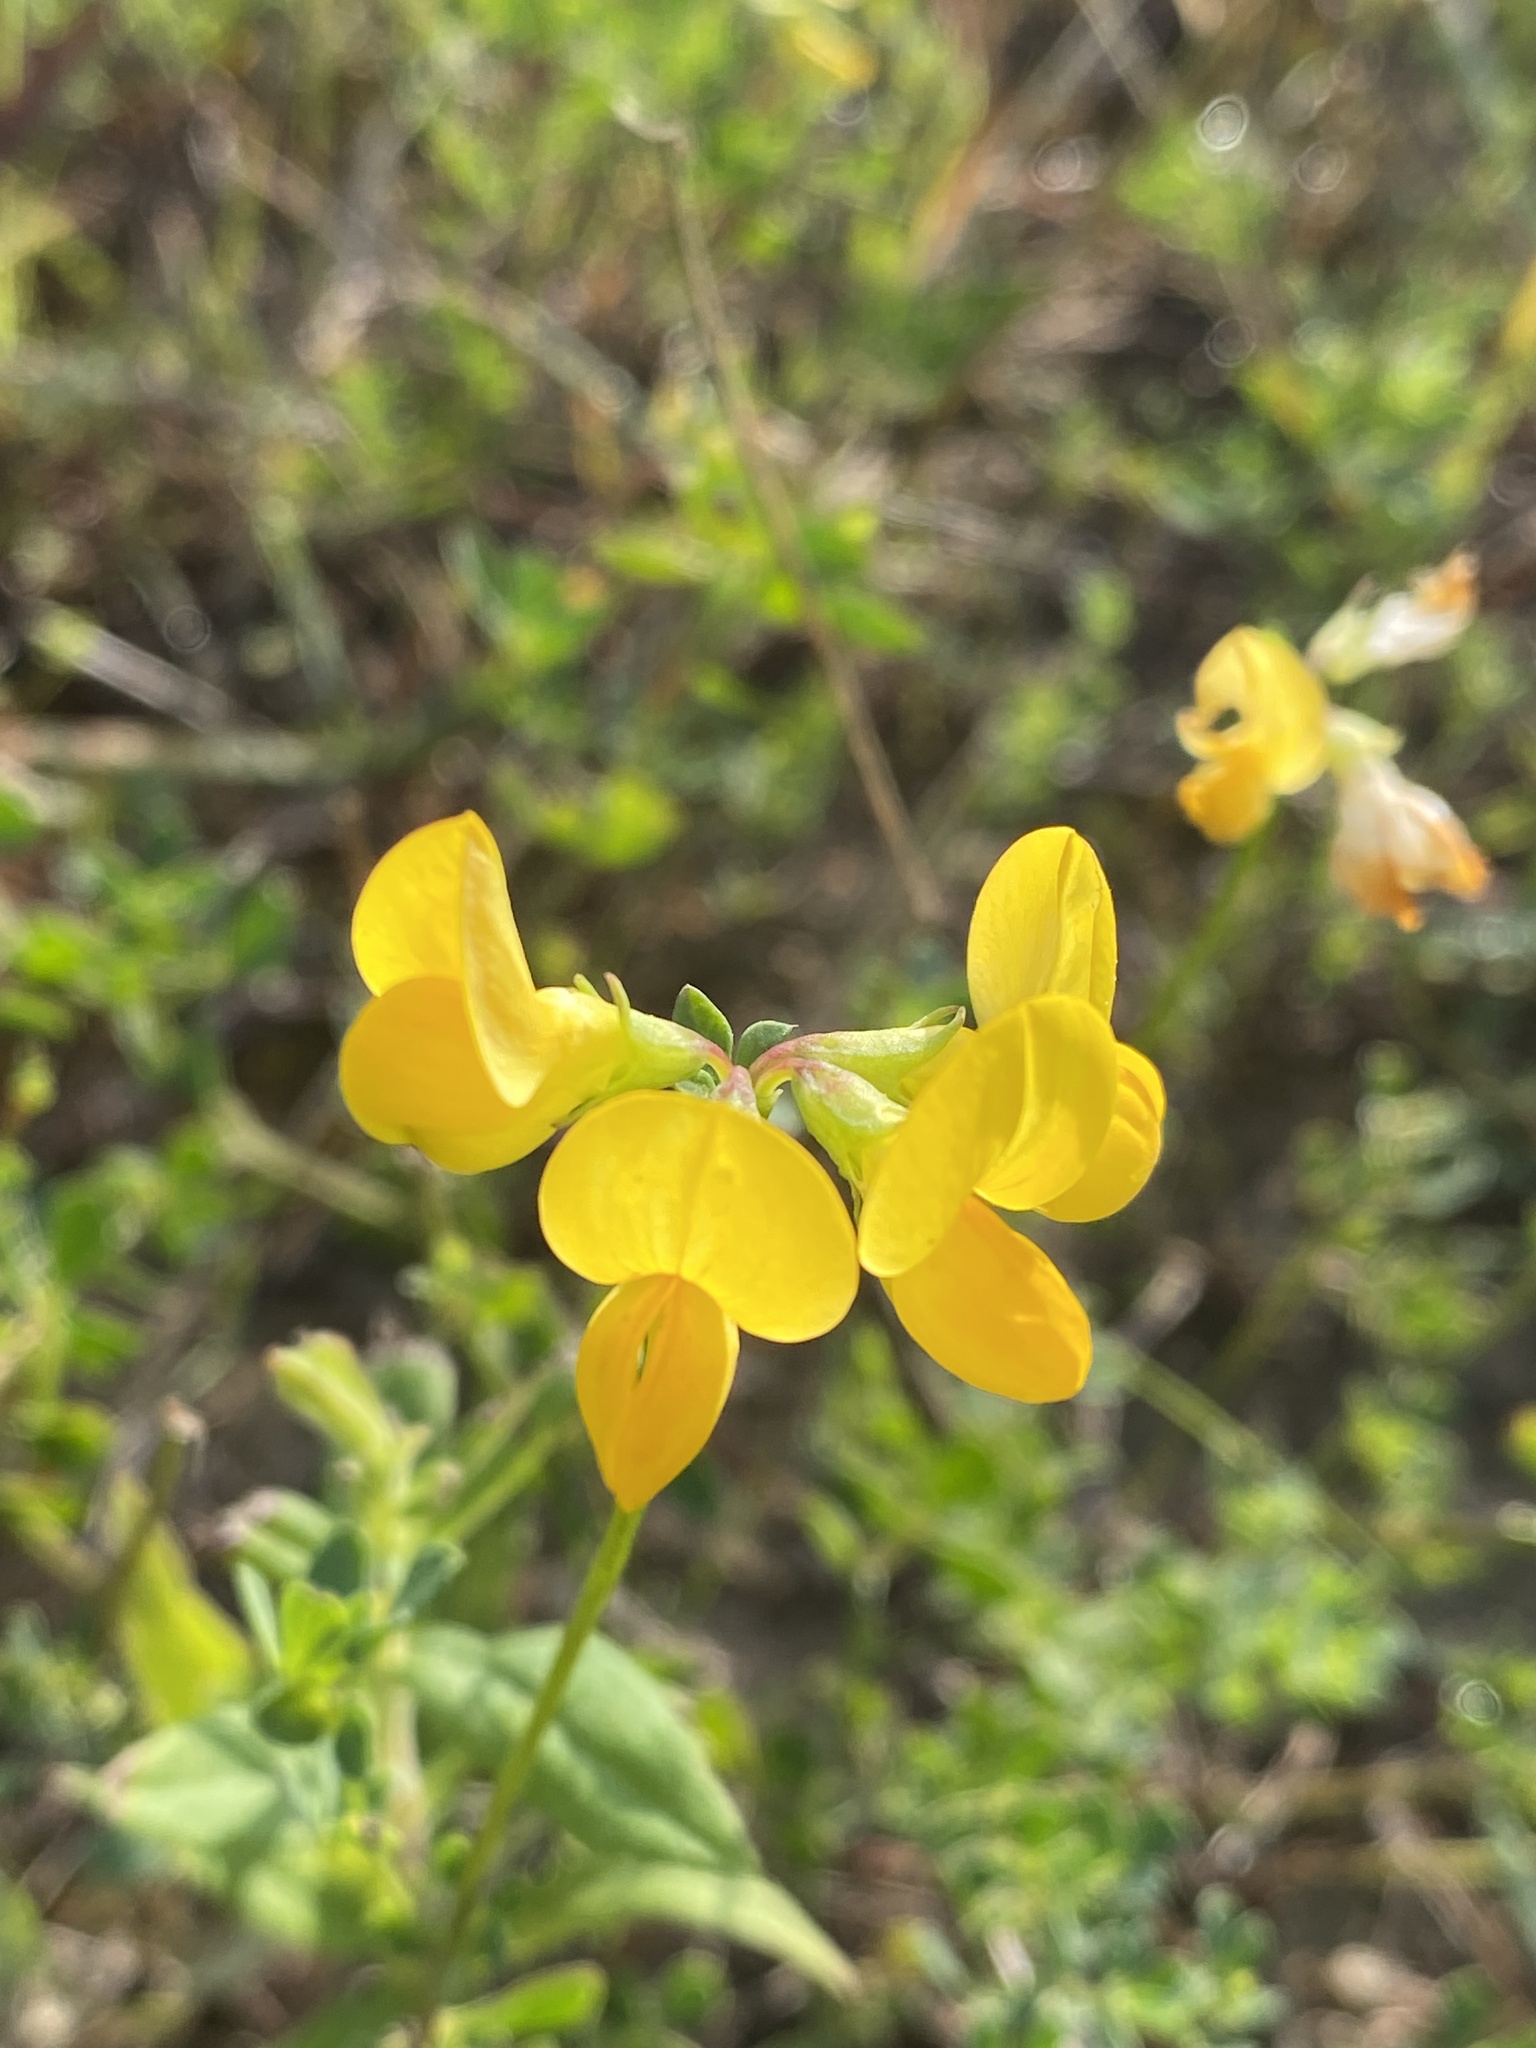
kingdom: Plantae
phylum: Tracheophyta
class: Magnoliopsida
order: Fabales
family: Fabaceae
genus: Lotus
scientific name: Lotus corniculatus
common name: Common bird's-foot-trefoil
